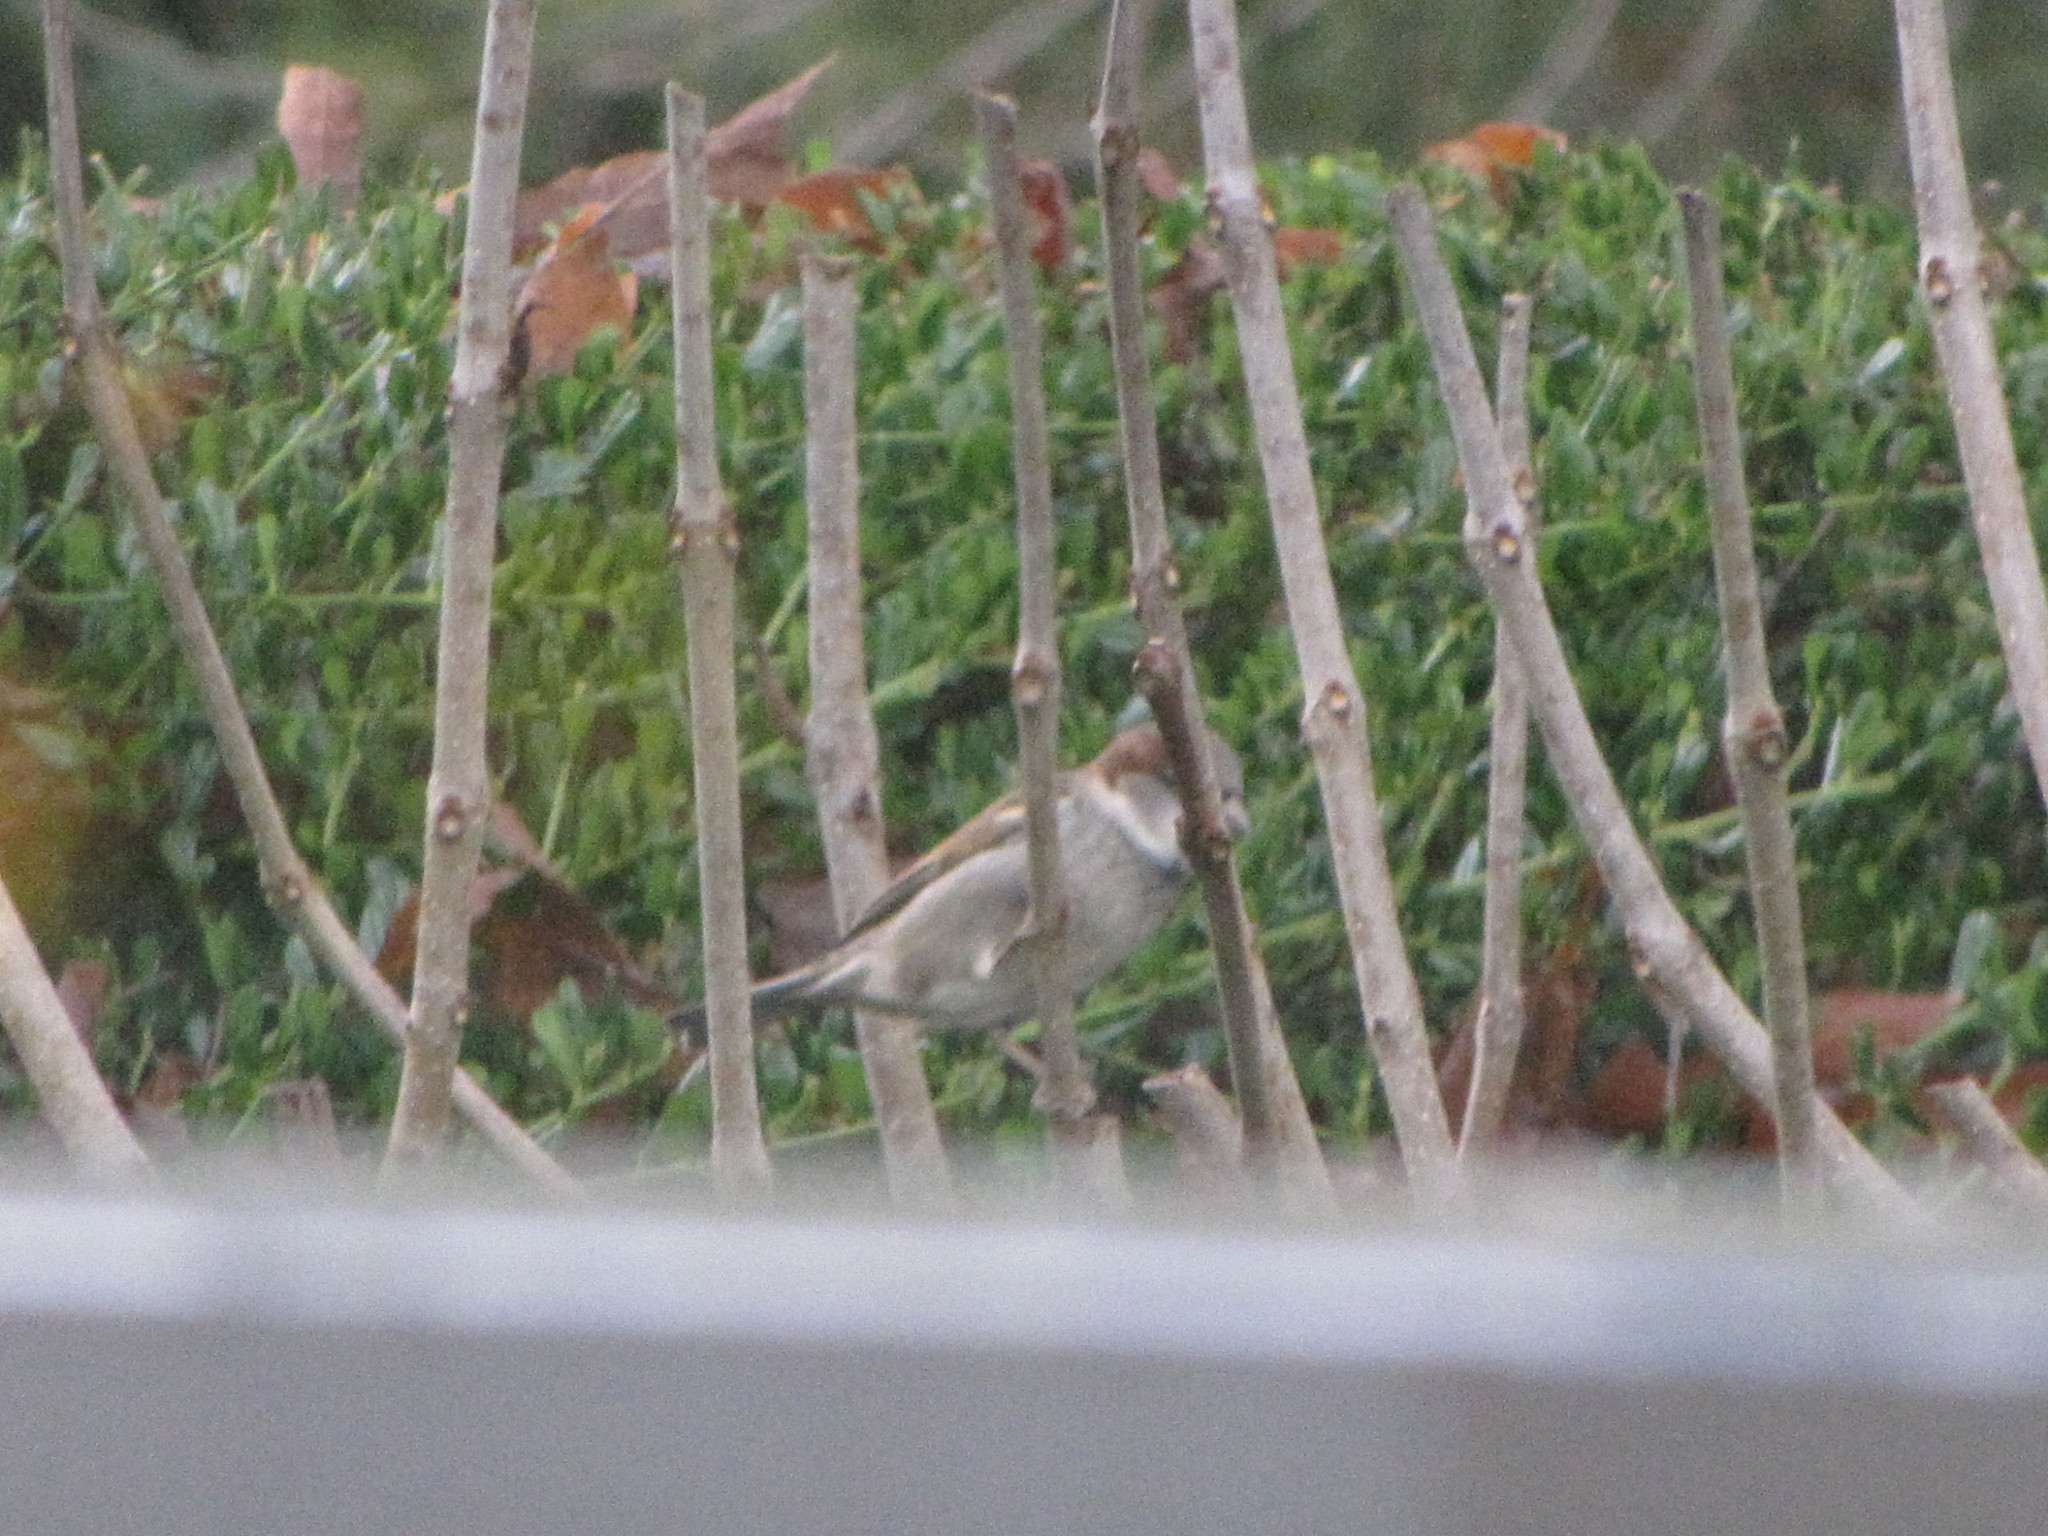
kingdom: Animalia
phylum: Chordata
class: Aves
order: Passeriformes
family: Passeridae
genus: Passer
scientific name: Passer domesticus
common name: House sparrow
